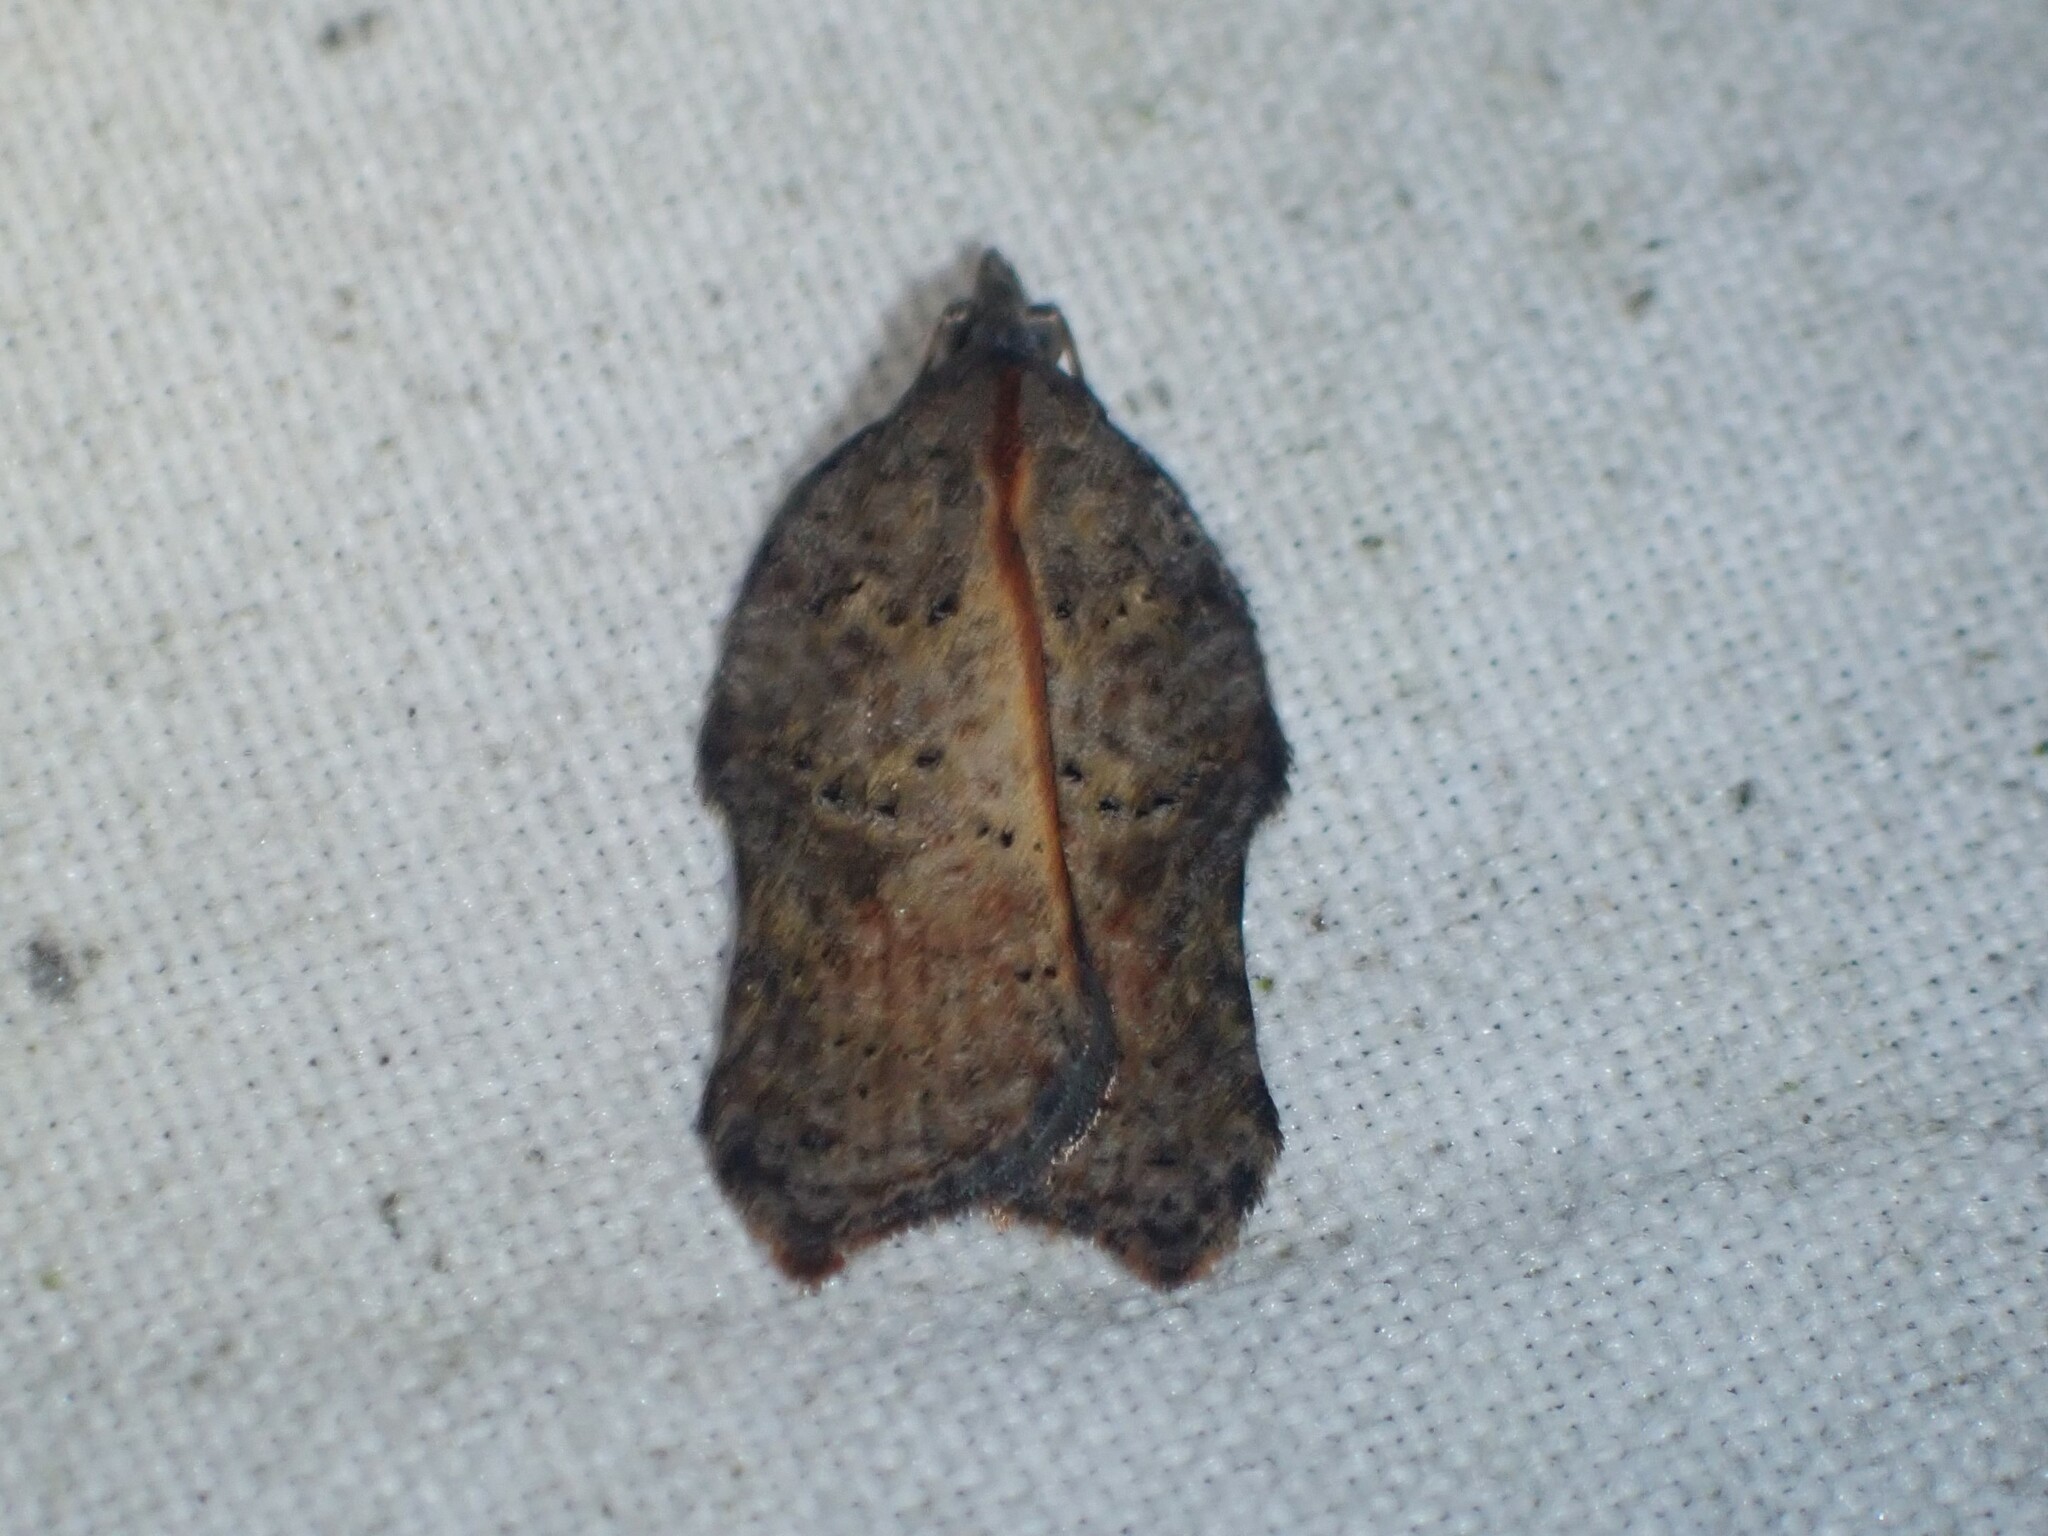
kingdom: Animalia
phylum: Arthropoda
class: Insecta
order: Lepidoptera
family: Tortricidae
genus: Acleris
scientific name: Acleris effractana
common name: Hook-winged tortrix moth
